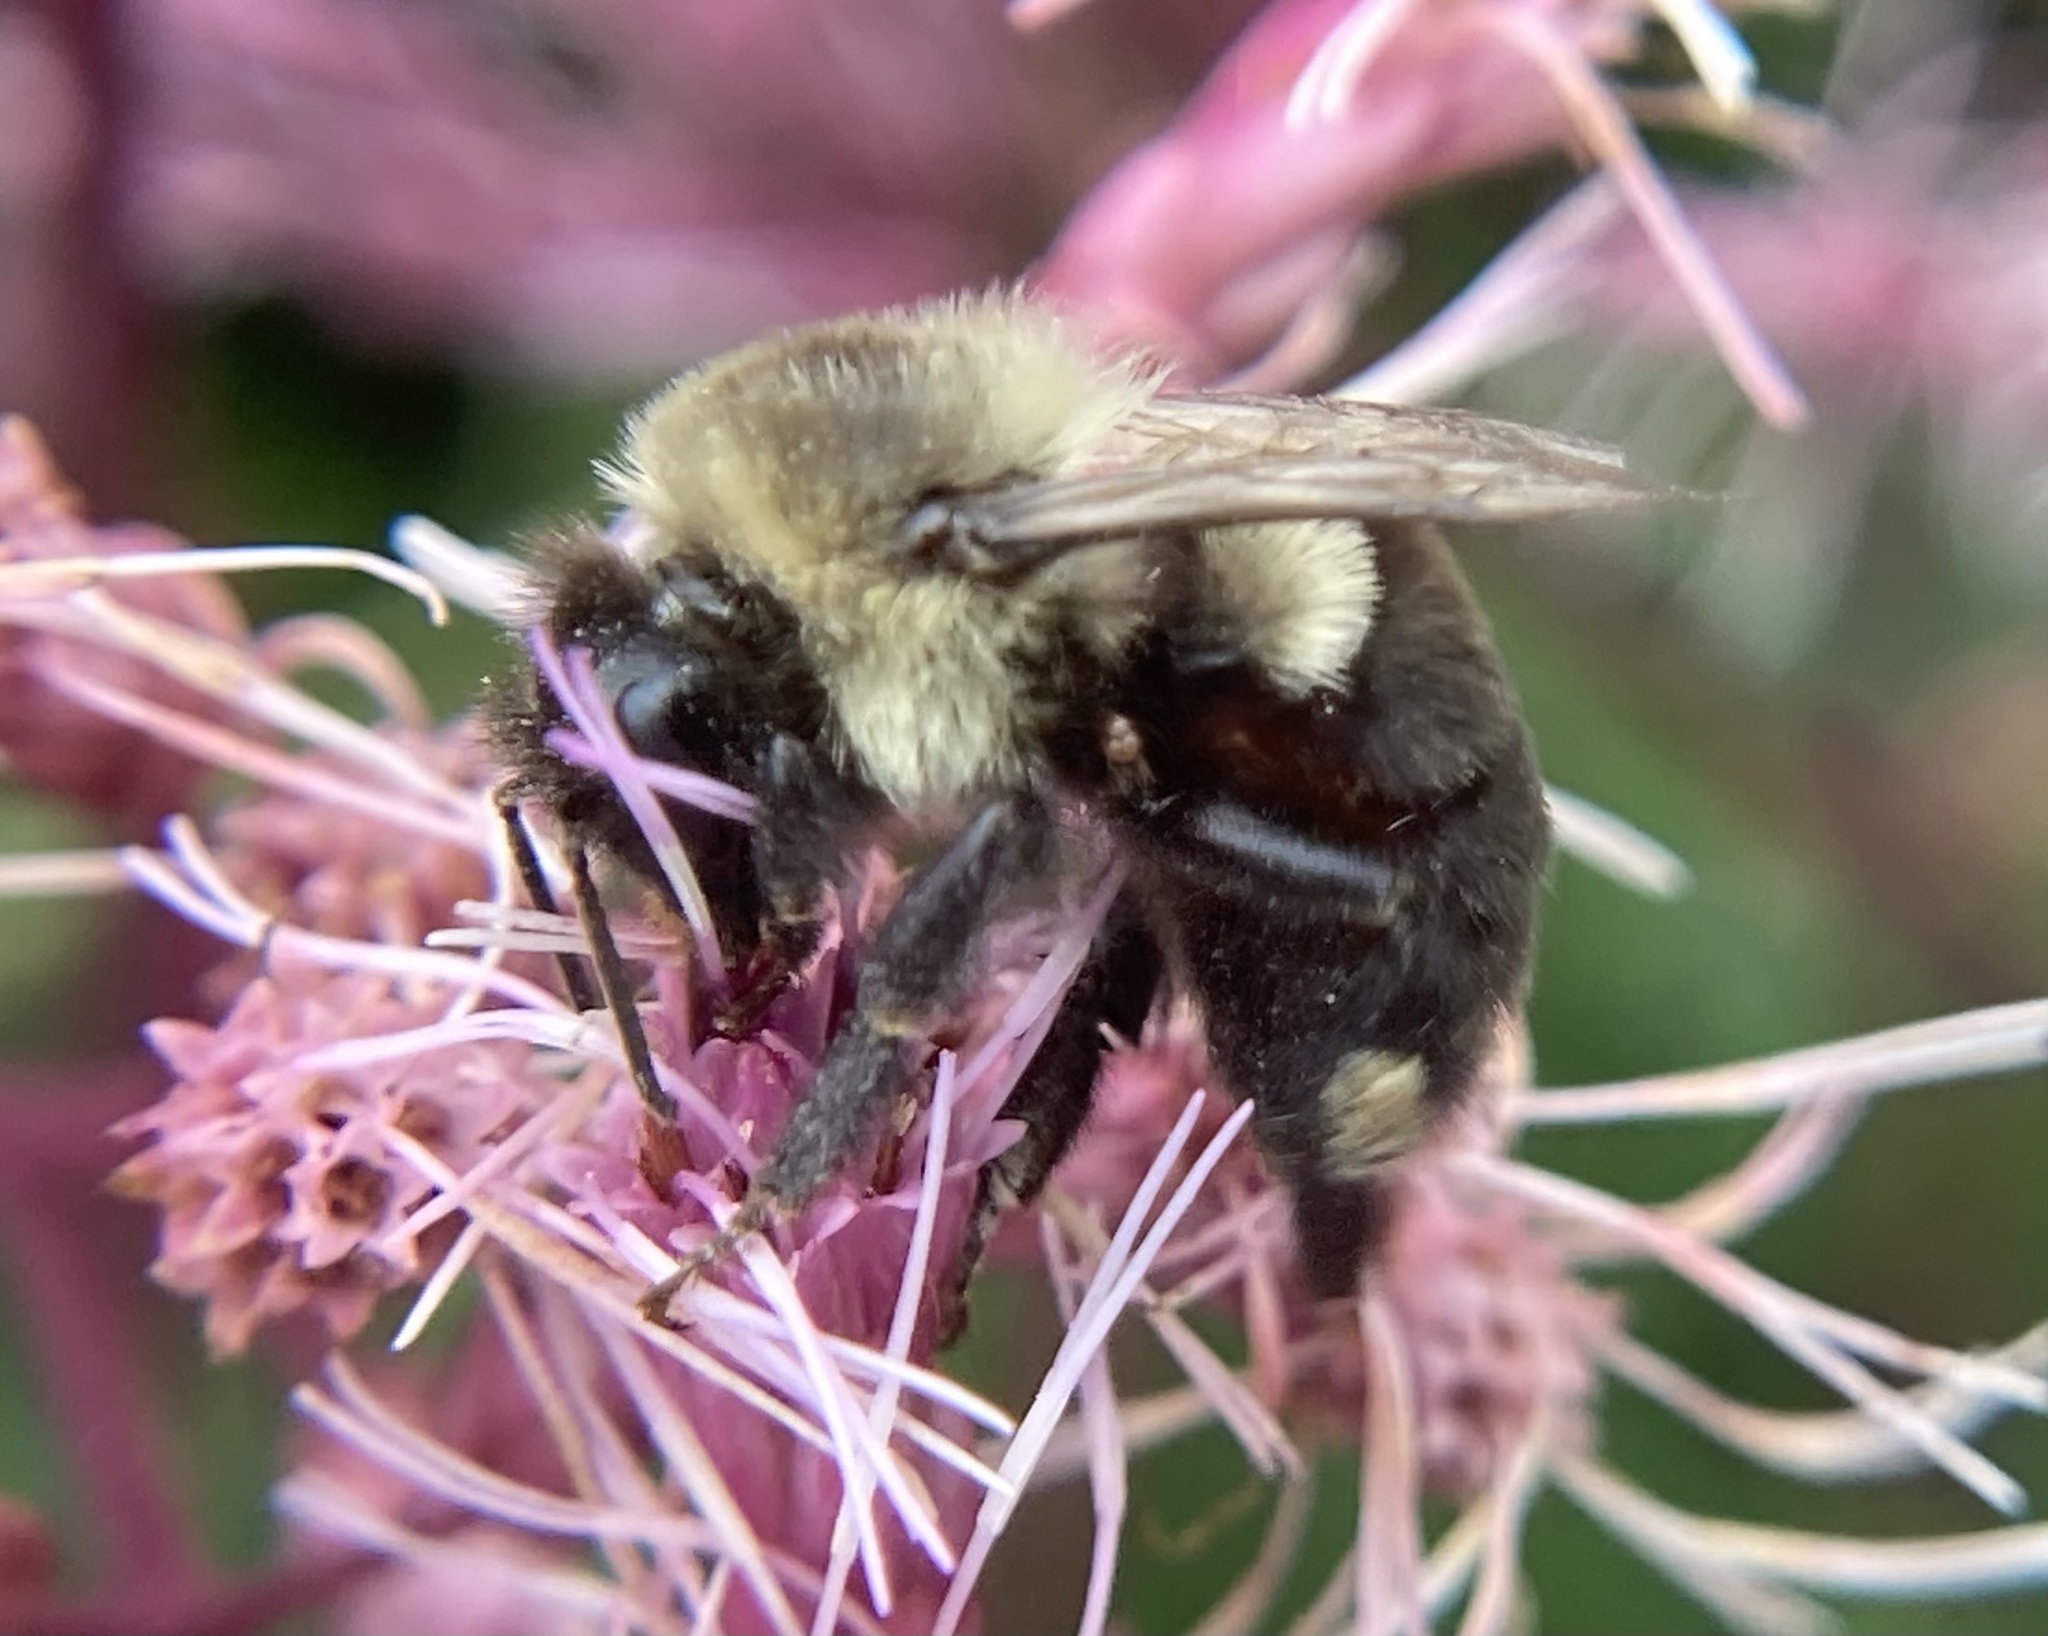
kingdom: Animalia
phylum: Arthropoda
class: Insecta
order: Hymenoptera
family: Apidae
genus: Bombus
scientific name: Bombus impatiens
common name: Common eastern bumble bee
